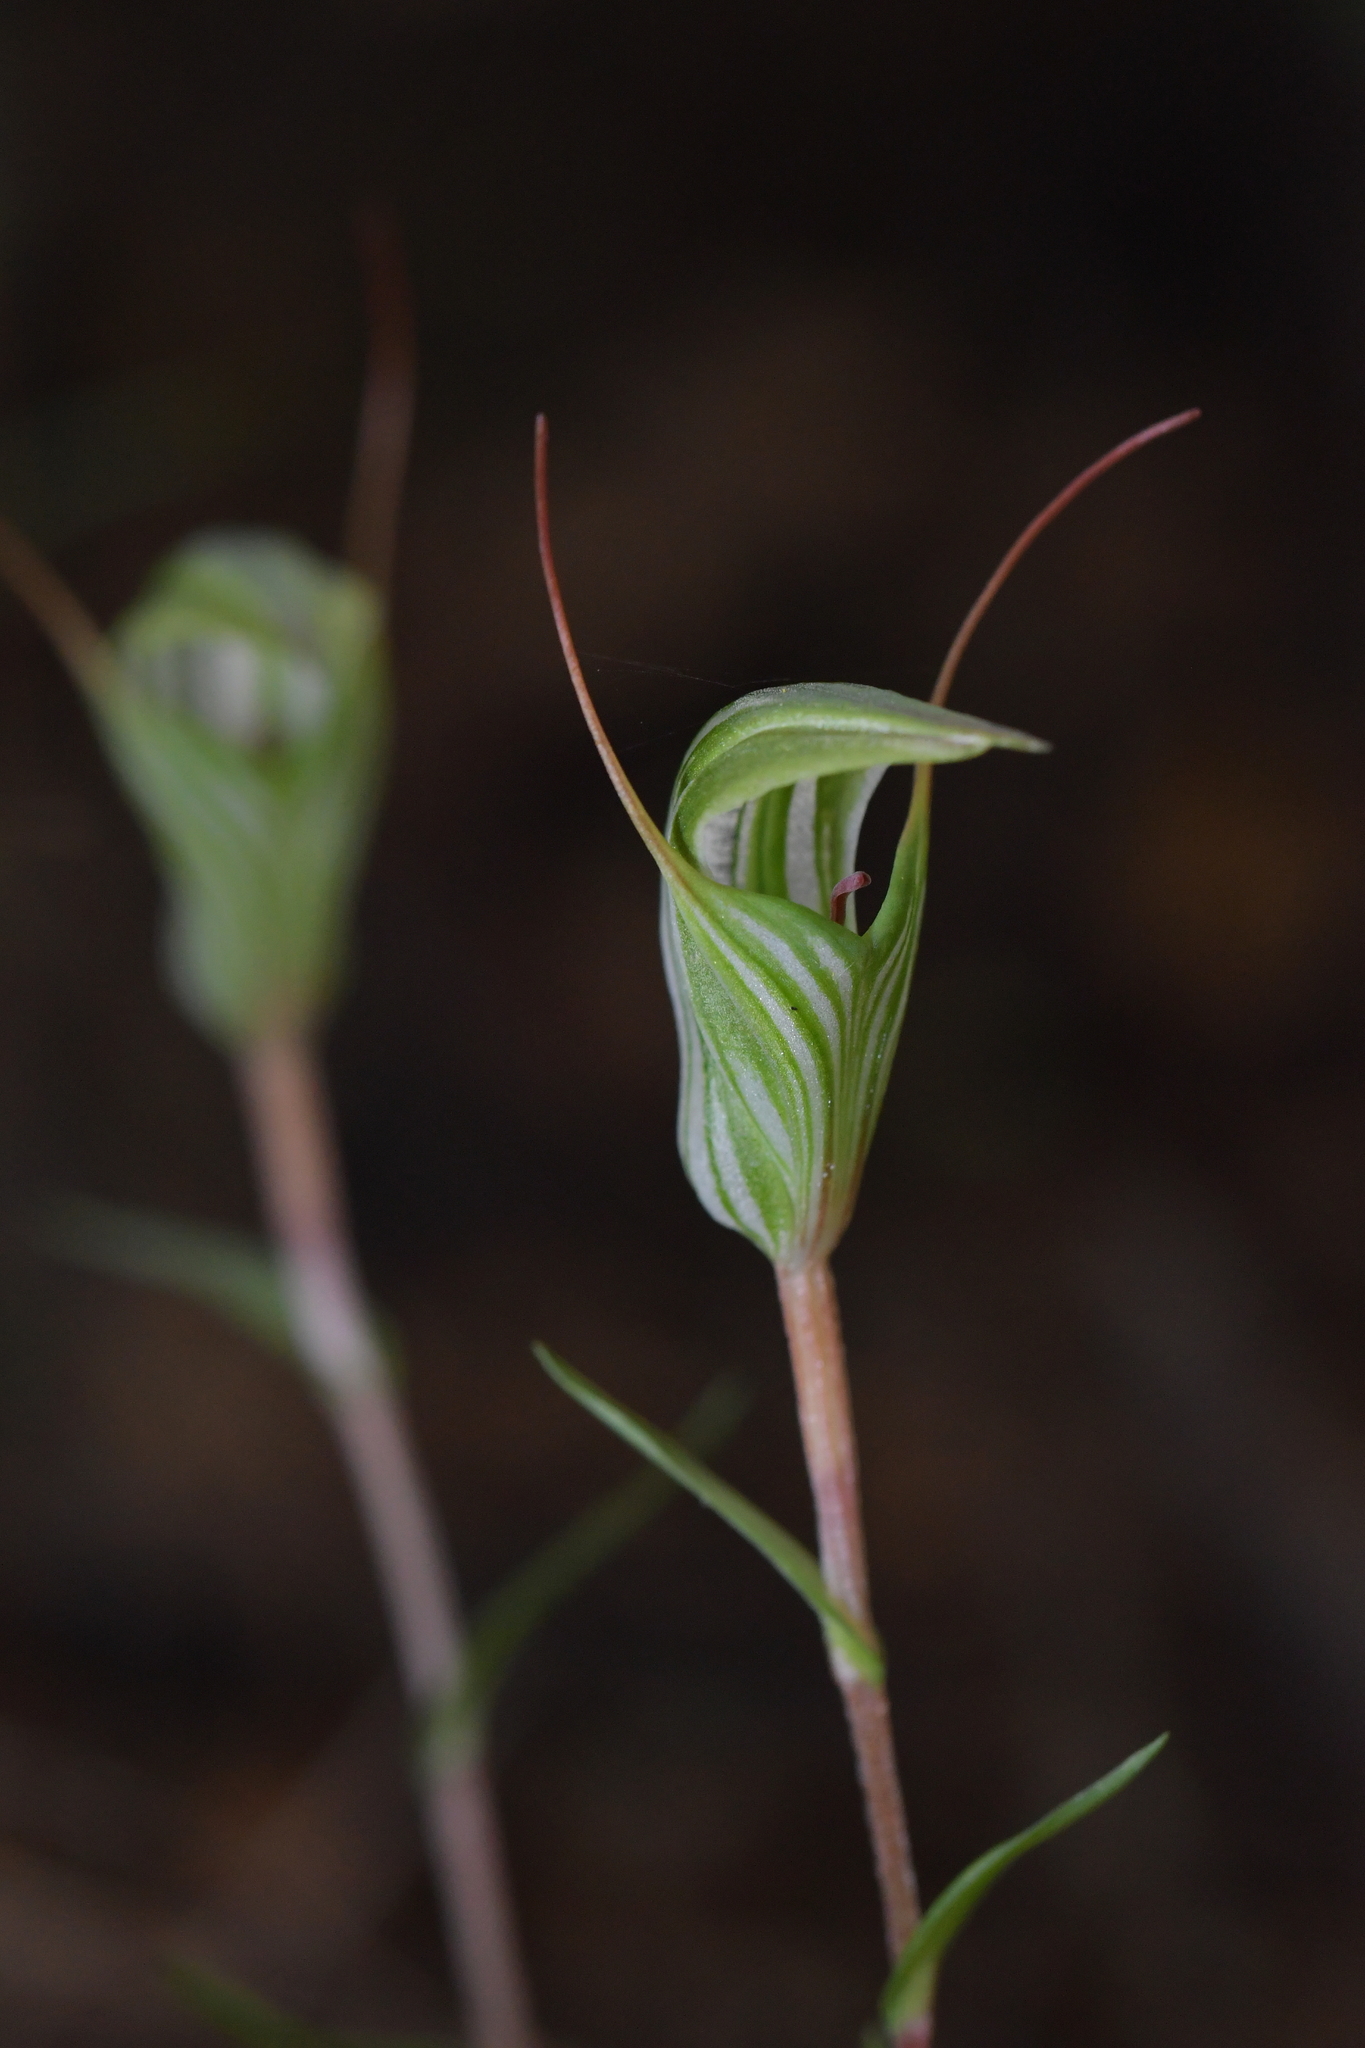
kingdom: Plantae
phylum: Tracheophyta
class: Liliopsida
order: Asparagales
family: Orchidaceae
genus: Pterostylis
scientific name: Pterostylis alobula
